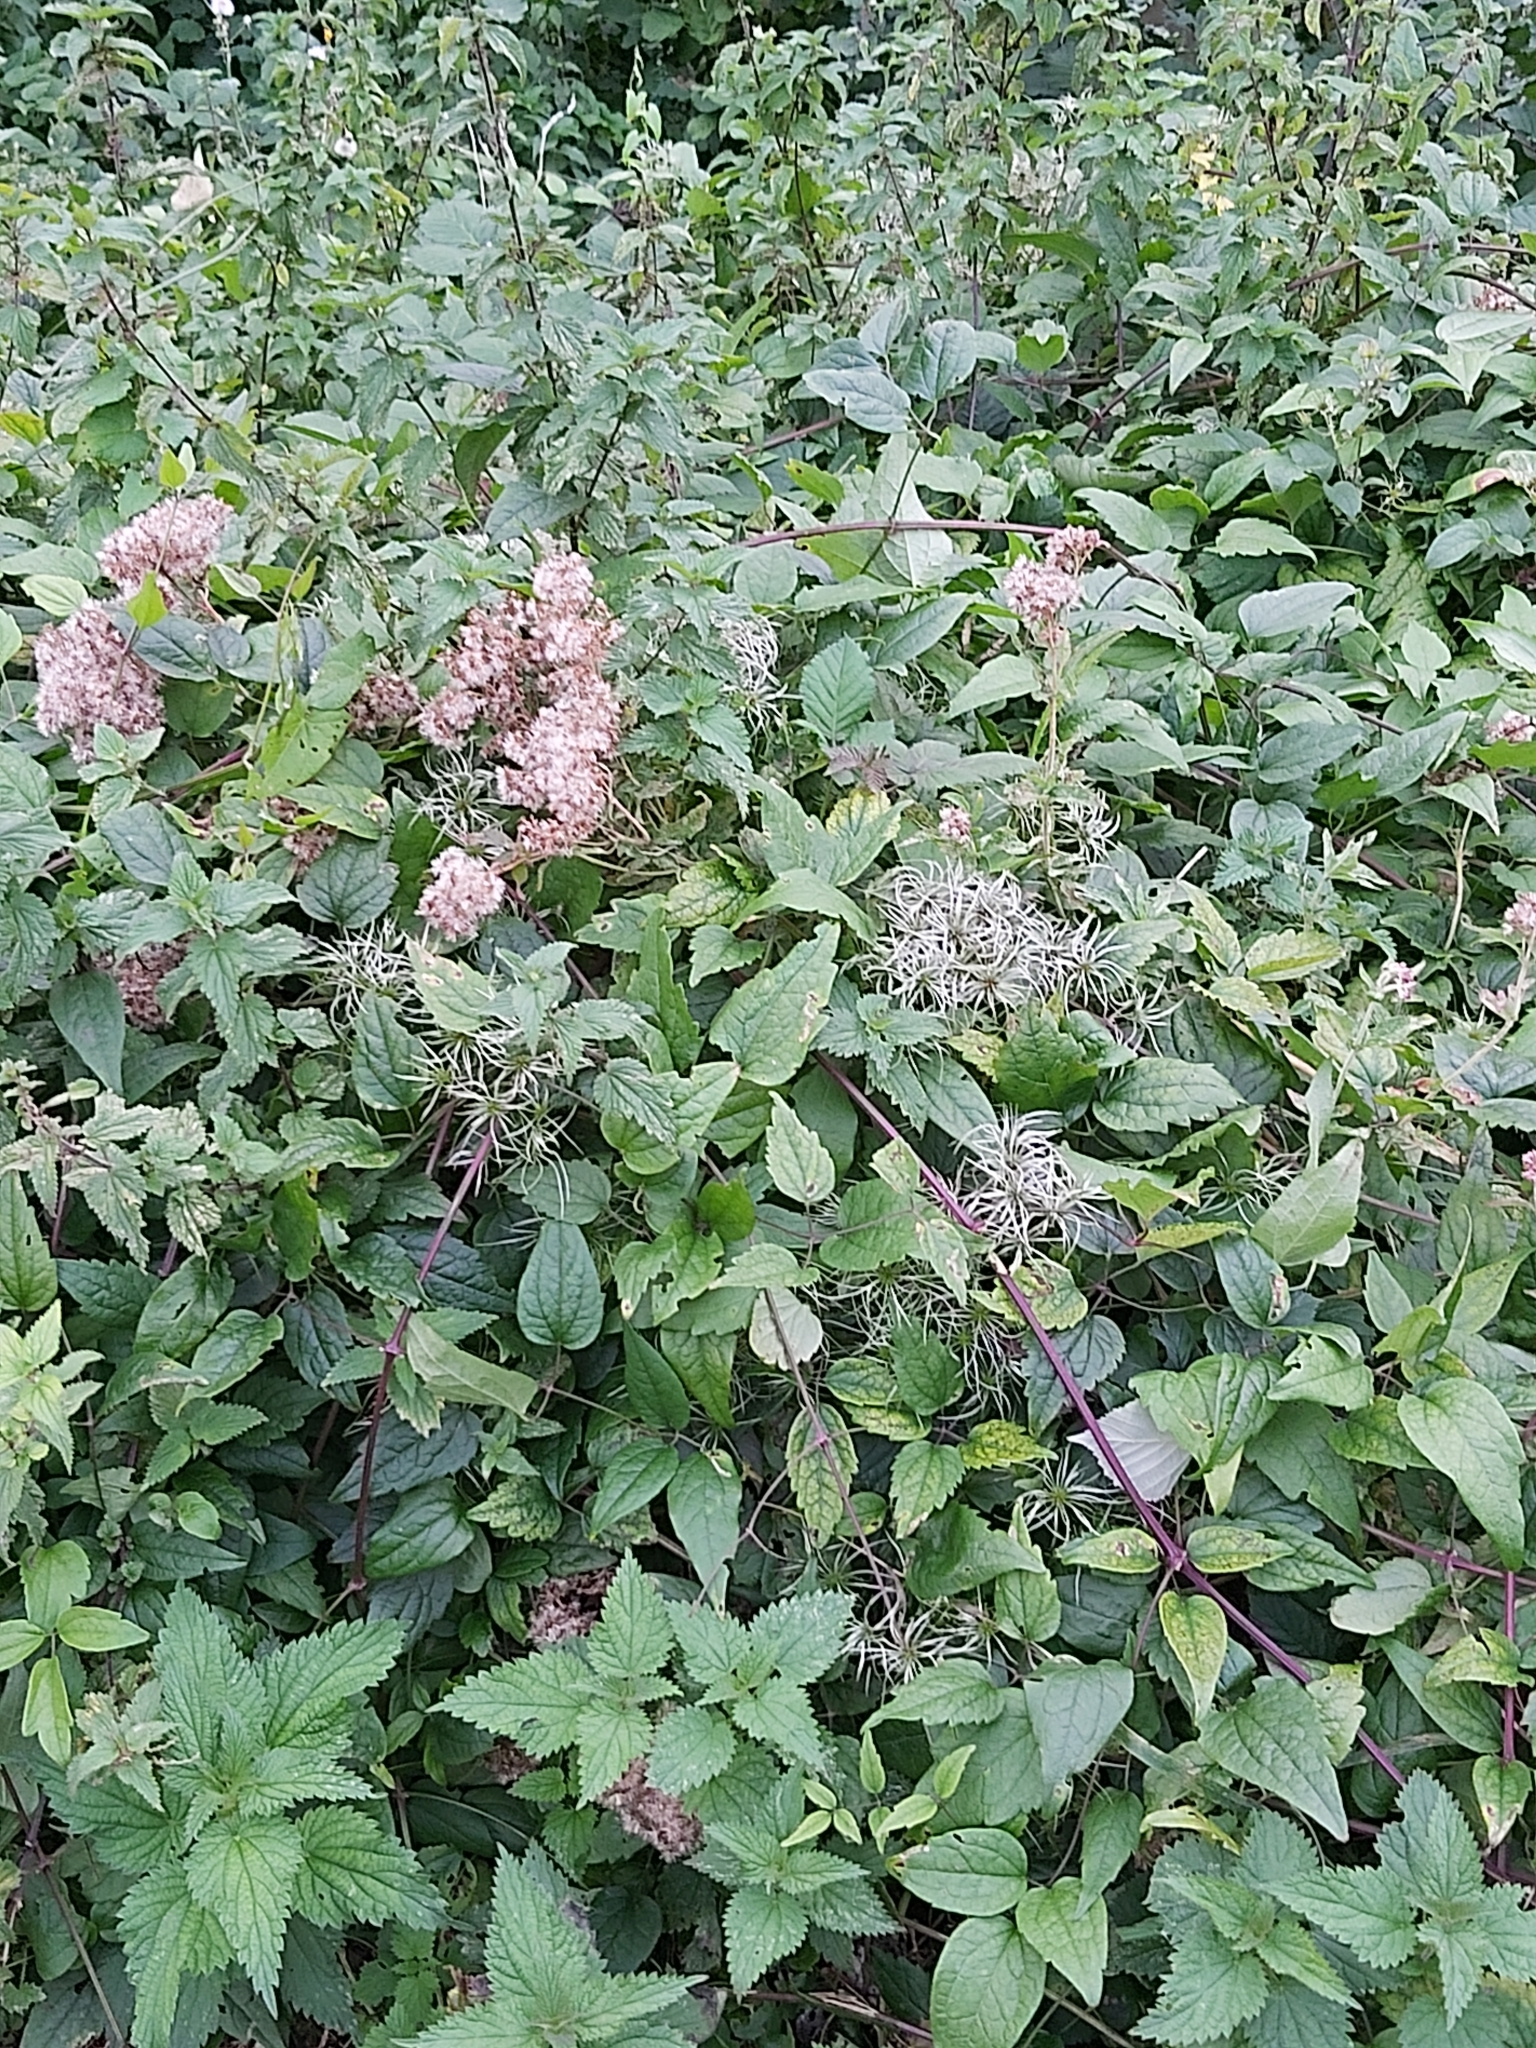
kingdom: Plantae
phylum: Tracheophyta
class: Magnoliopsida
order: Ranunculales
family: Ranunculaceae
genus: Clematis
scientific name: Clematis vitalba
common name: Evergreen clematis
